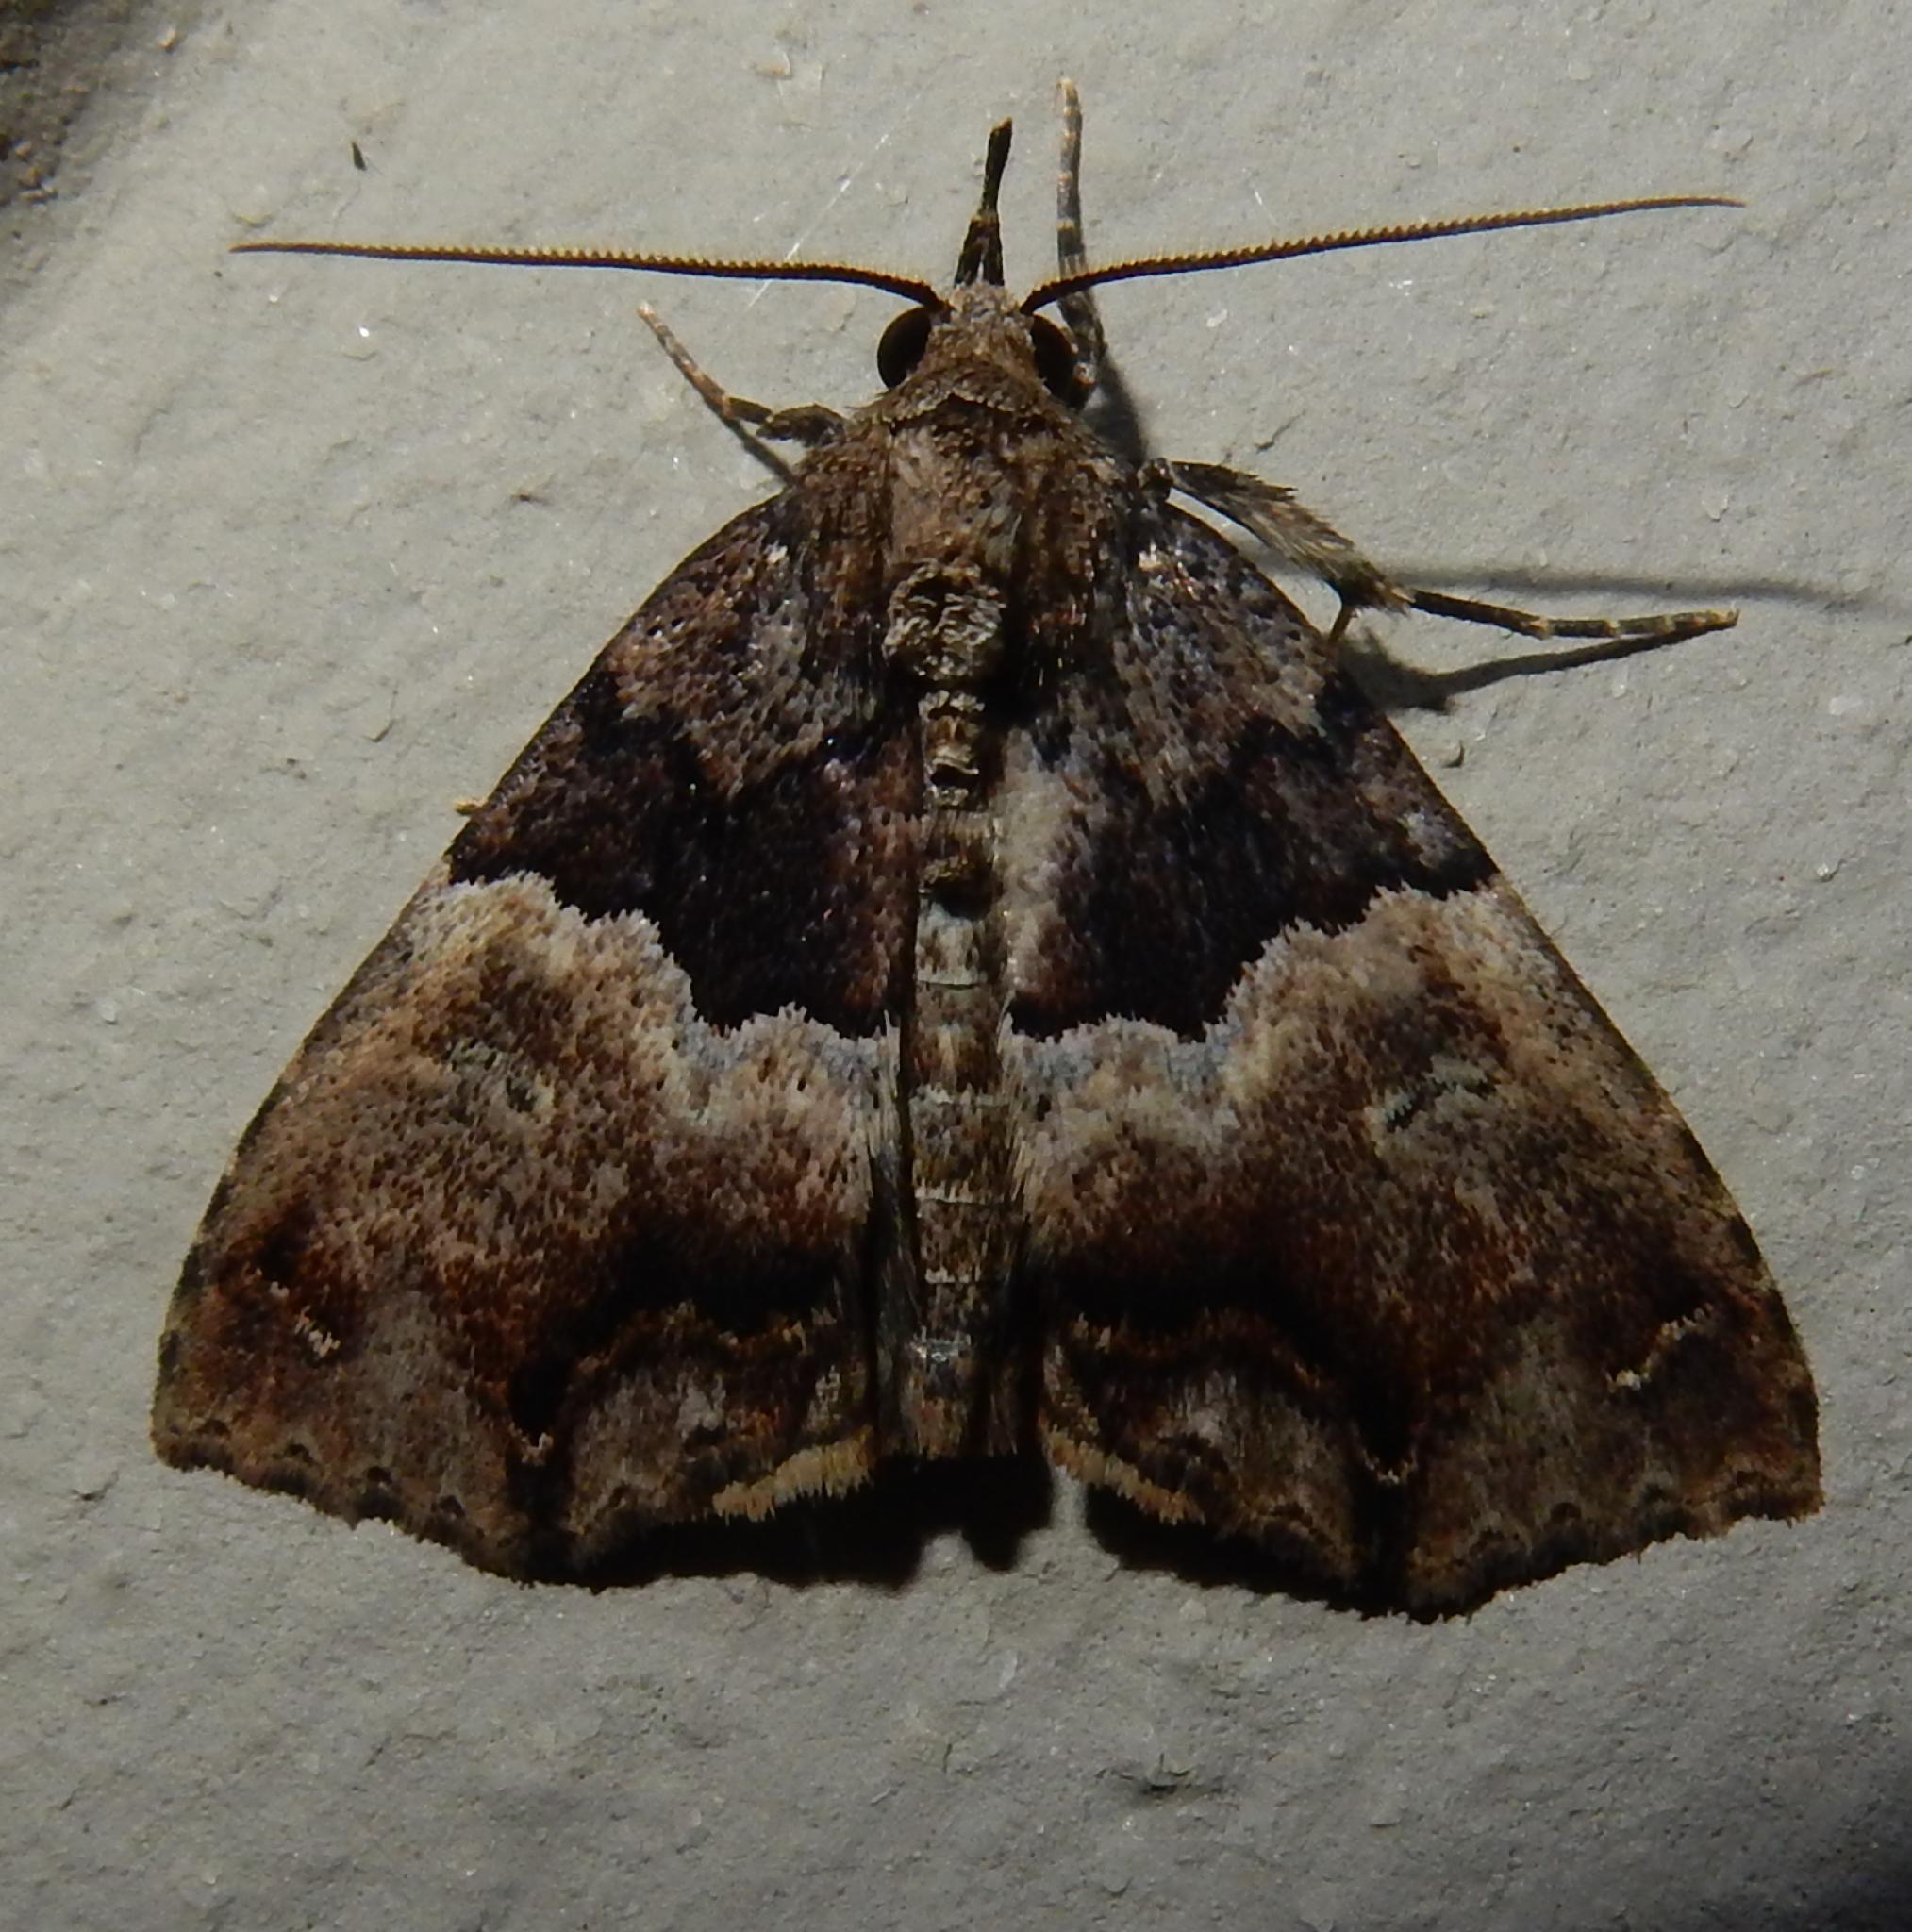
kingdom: Animalia
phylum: Arthropoda
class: Insecta
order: Lepidoptera
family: Erebidae
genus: Sarmatia
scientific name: Sarmatia interitalis
